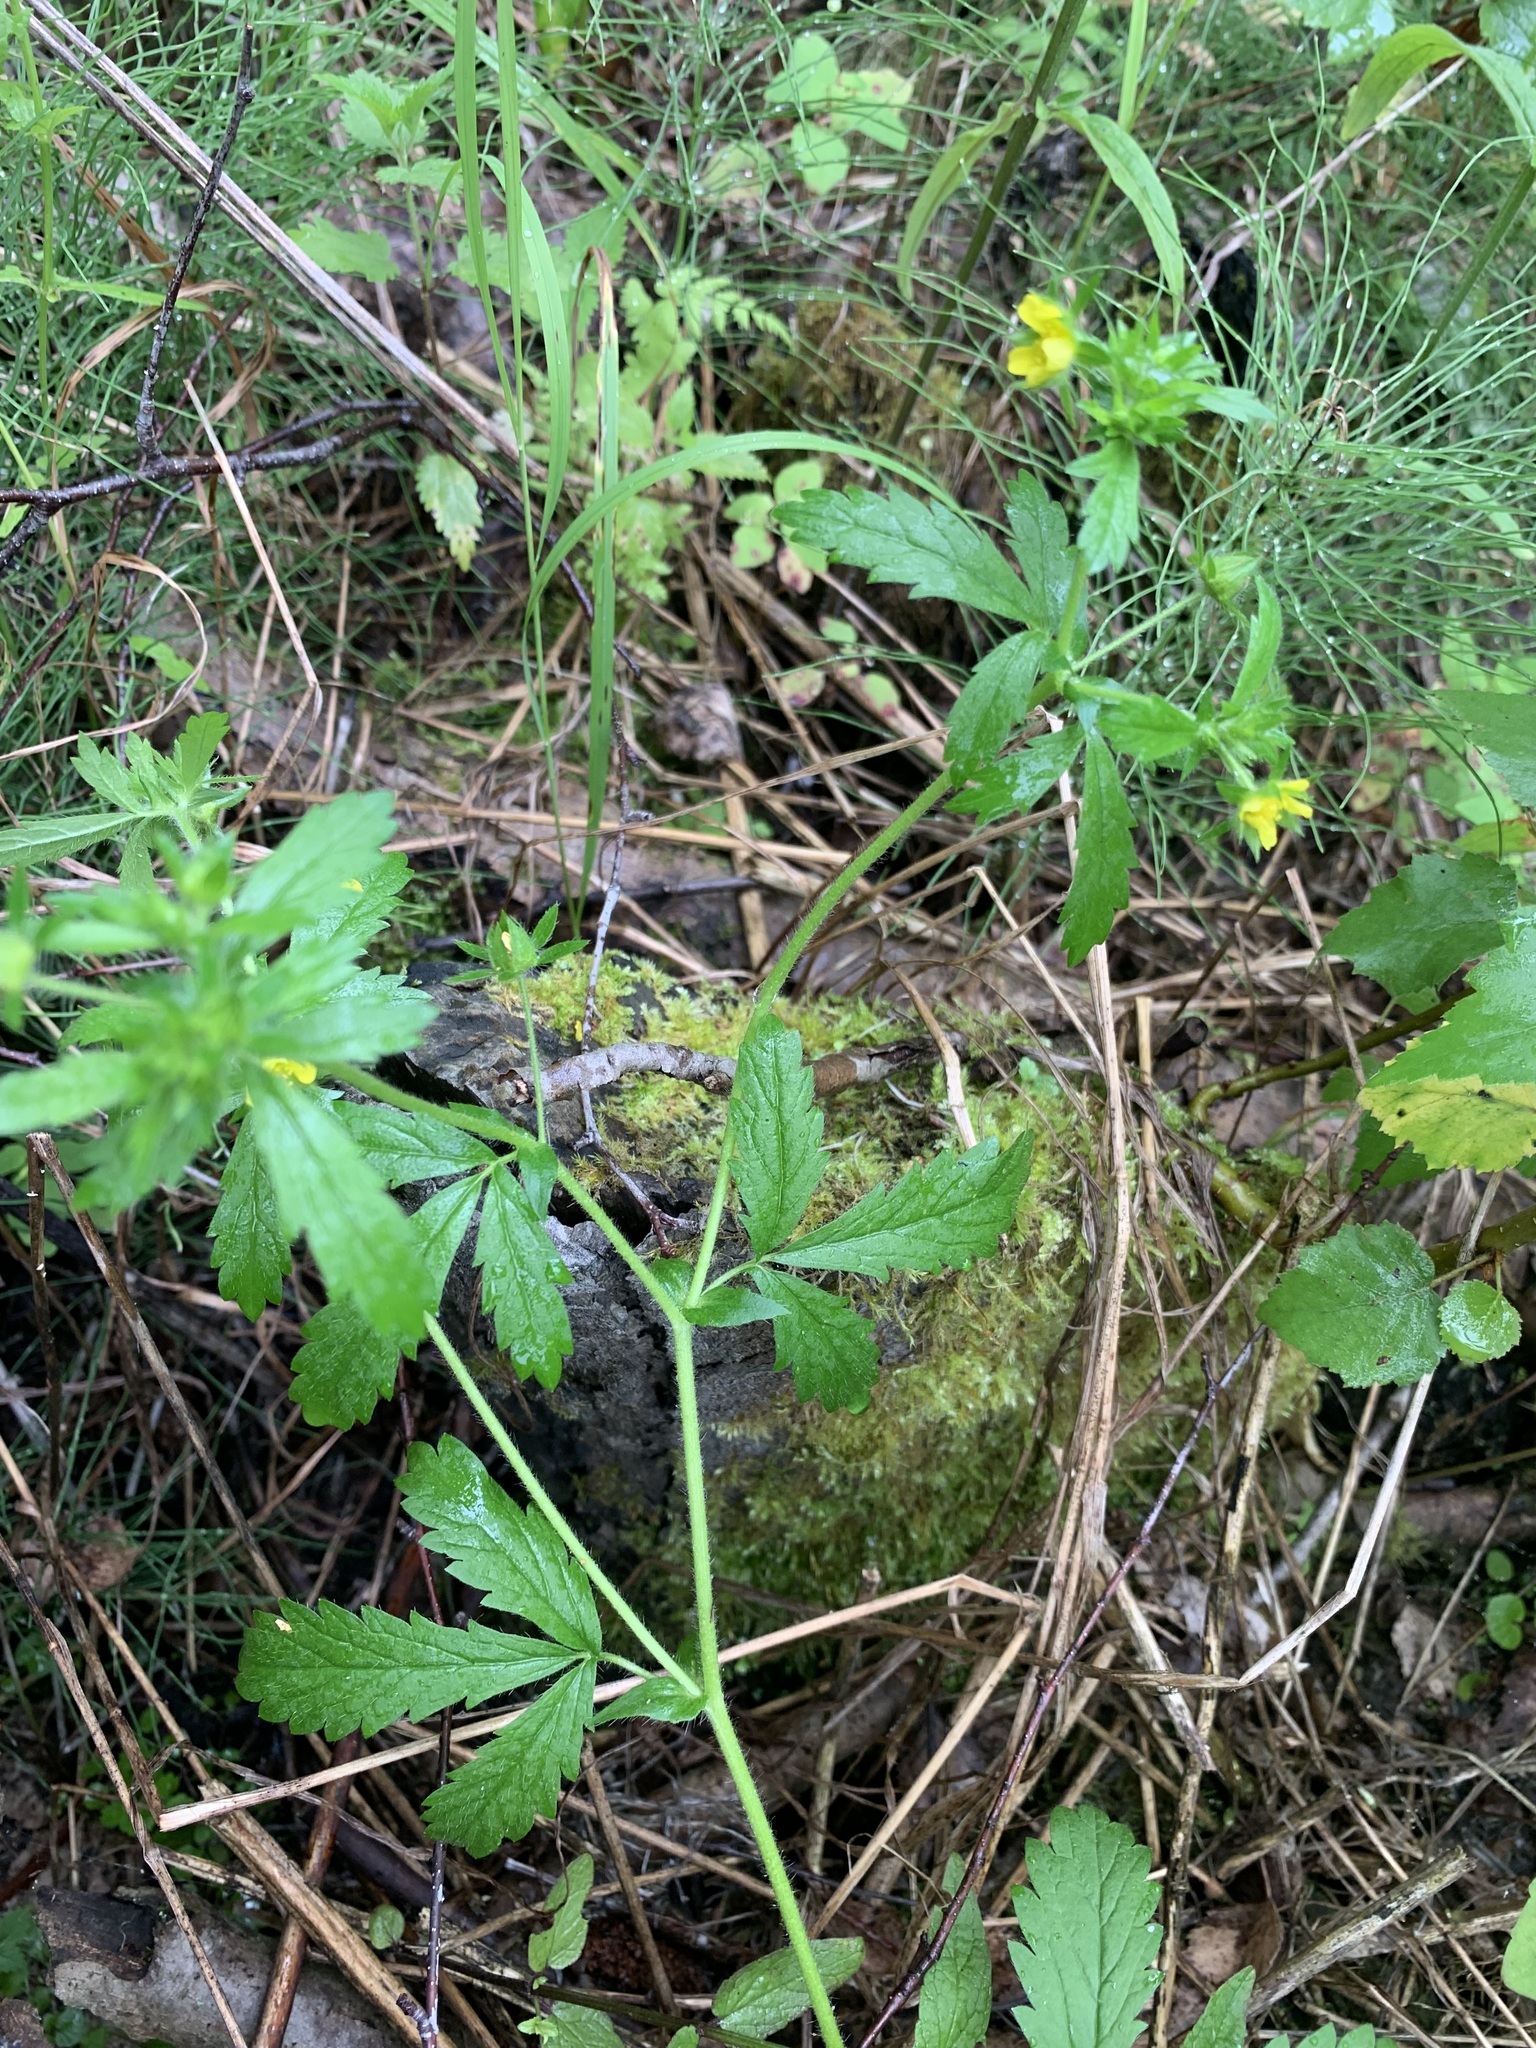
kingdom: Plantae
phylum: Tracheophyta
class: Magnoliopsida
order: Rosales
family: Rosaceae
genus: Potentilla
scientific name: Potentilla norvegica
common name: Ternate-leaved cinquefoil
